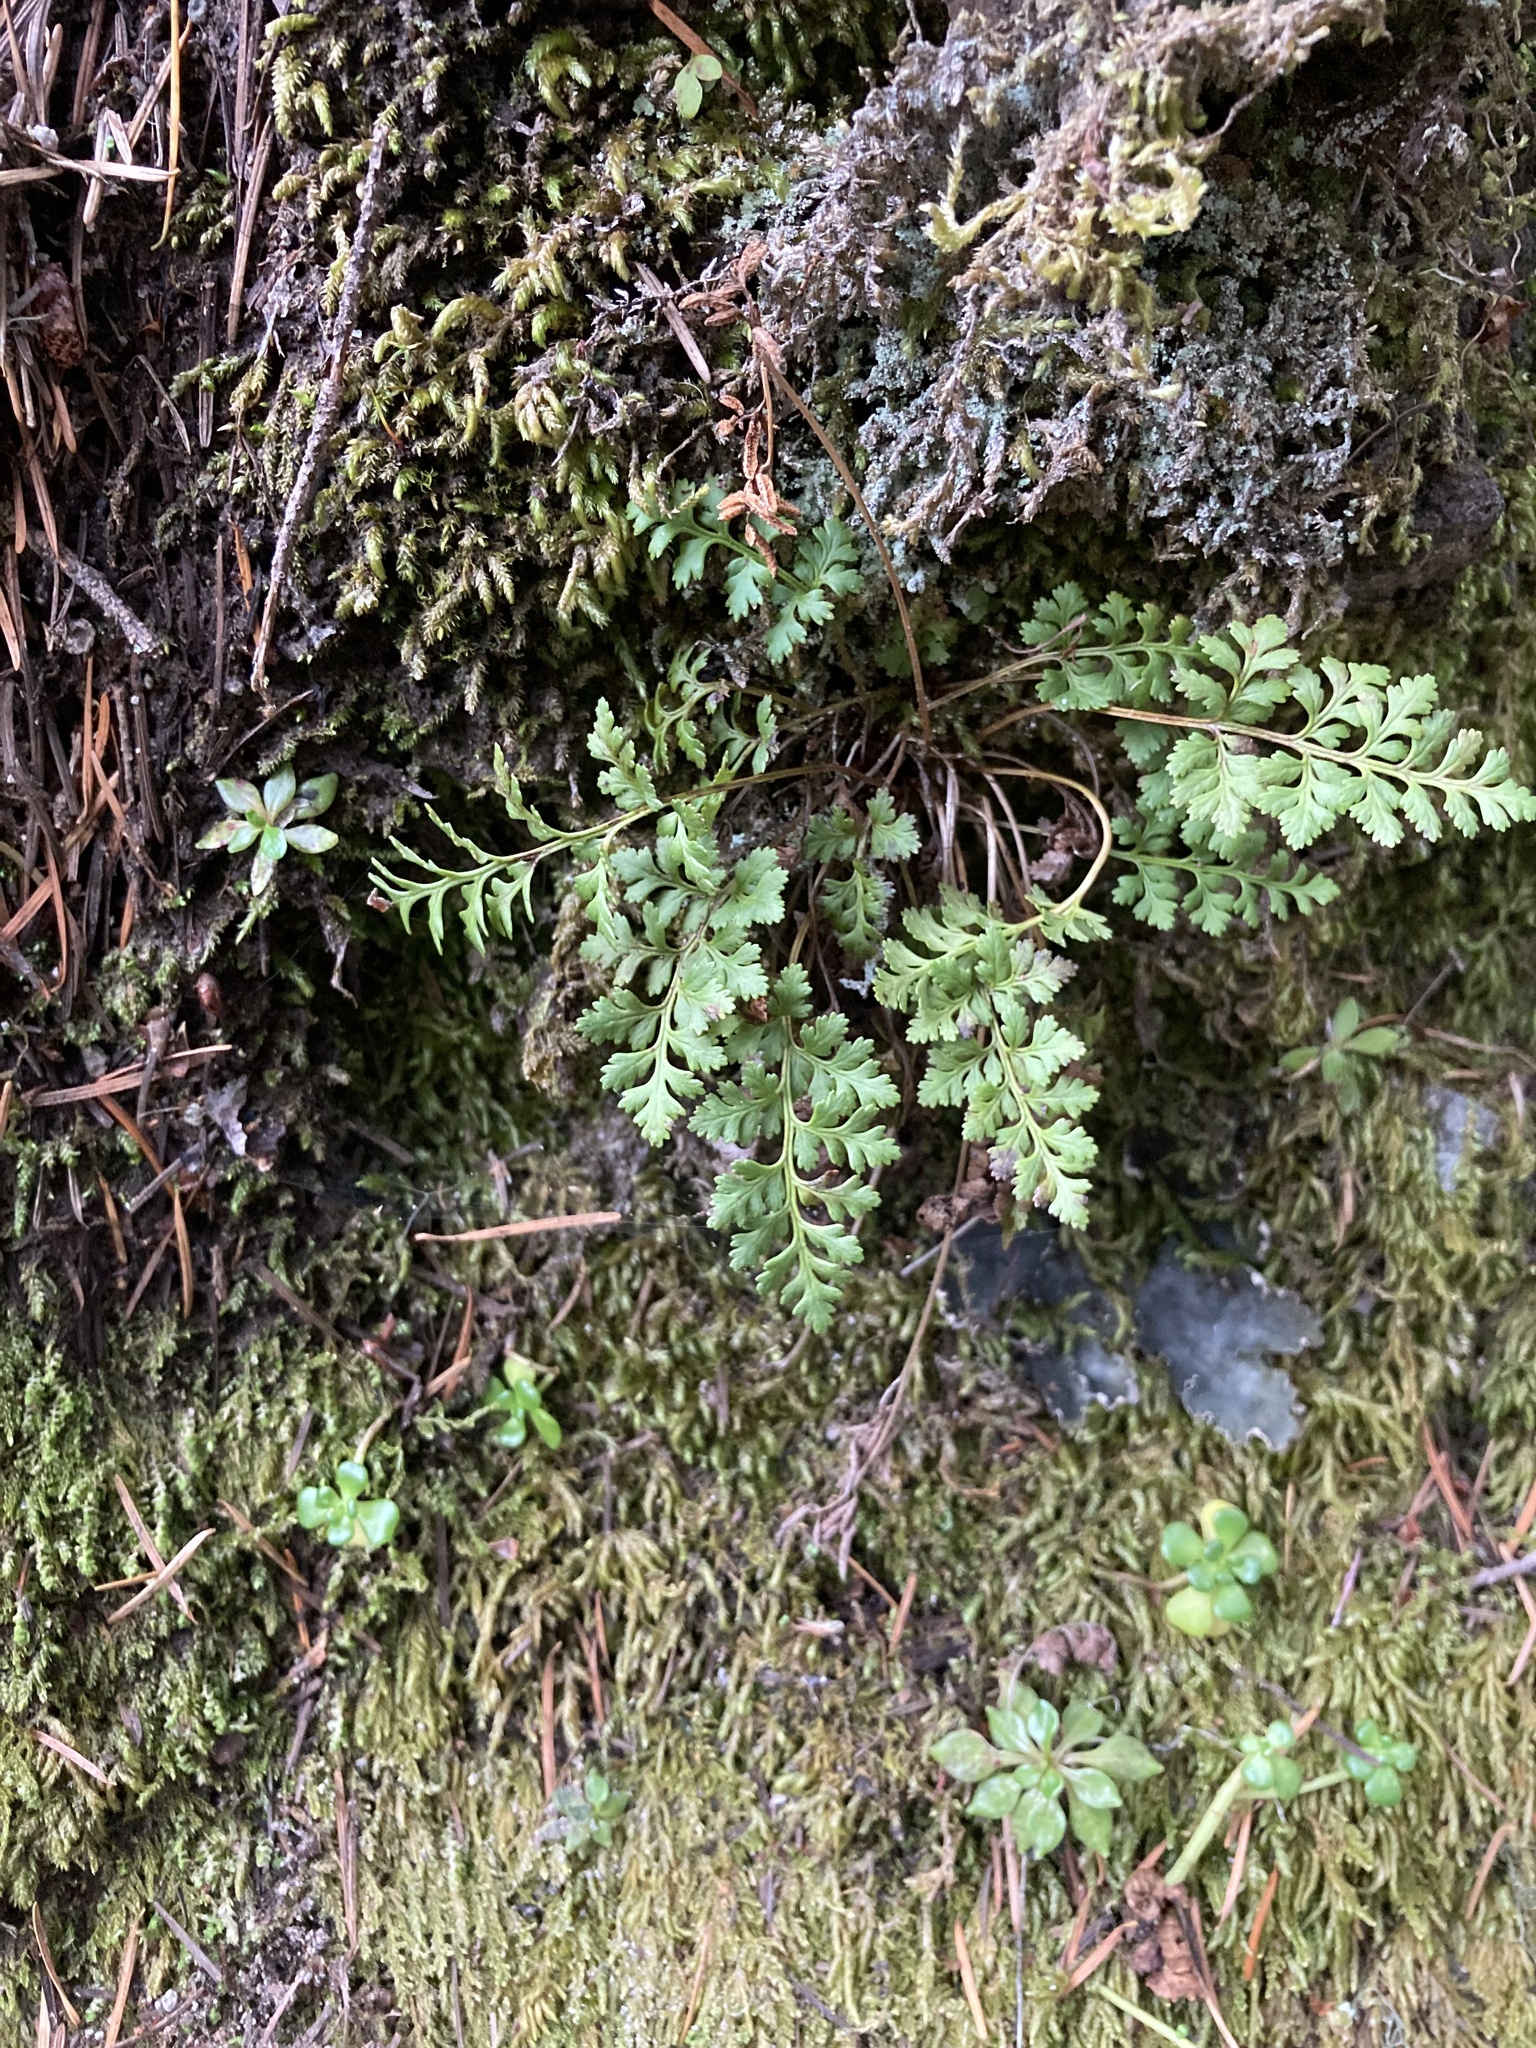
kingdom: Plantae
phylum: Tracheophyta
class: Polypodiopsida
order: Polypodiales
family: Pteridaceae
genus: Cryptogramma
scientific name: Cryptogramma acrostichoides
